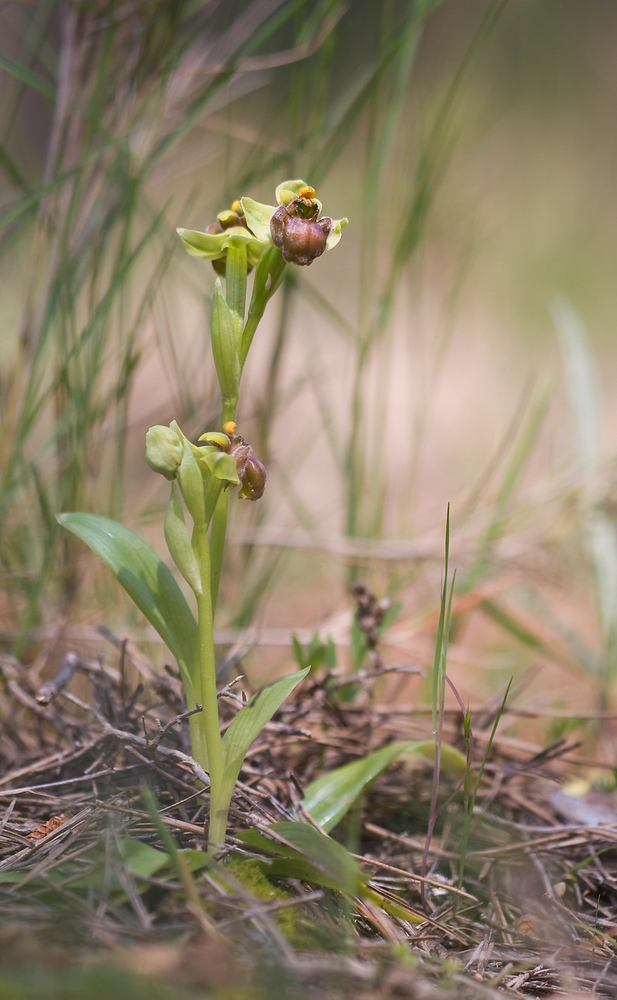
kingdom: Plantae
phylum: Tracheophyta
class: Liliopsida
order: Asparagales
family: Orchidaceae
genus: Ophrys
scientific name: Ophrys bombyliflora
